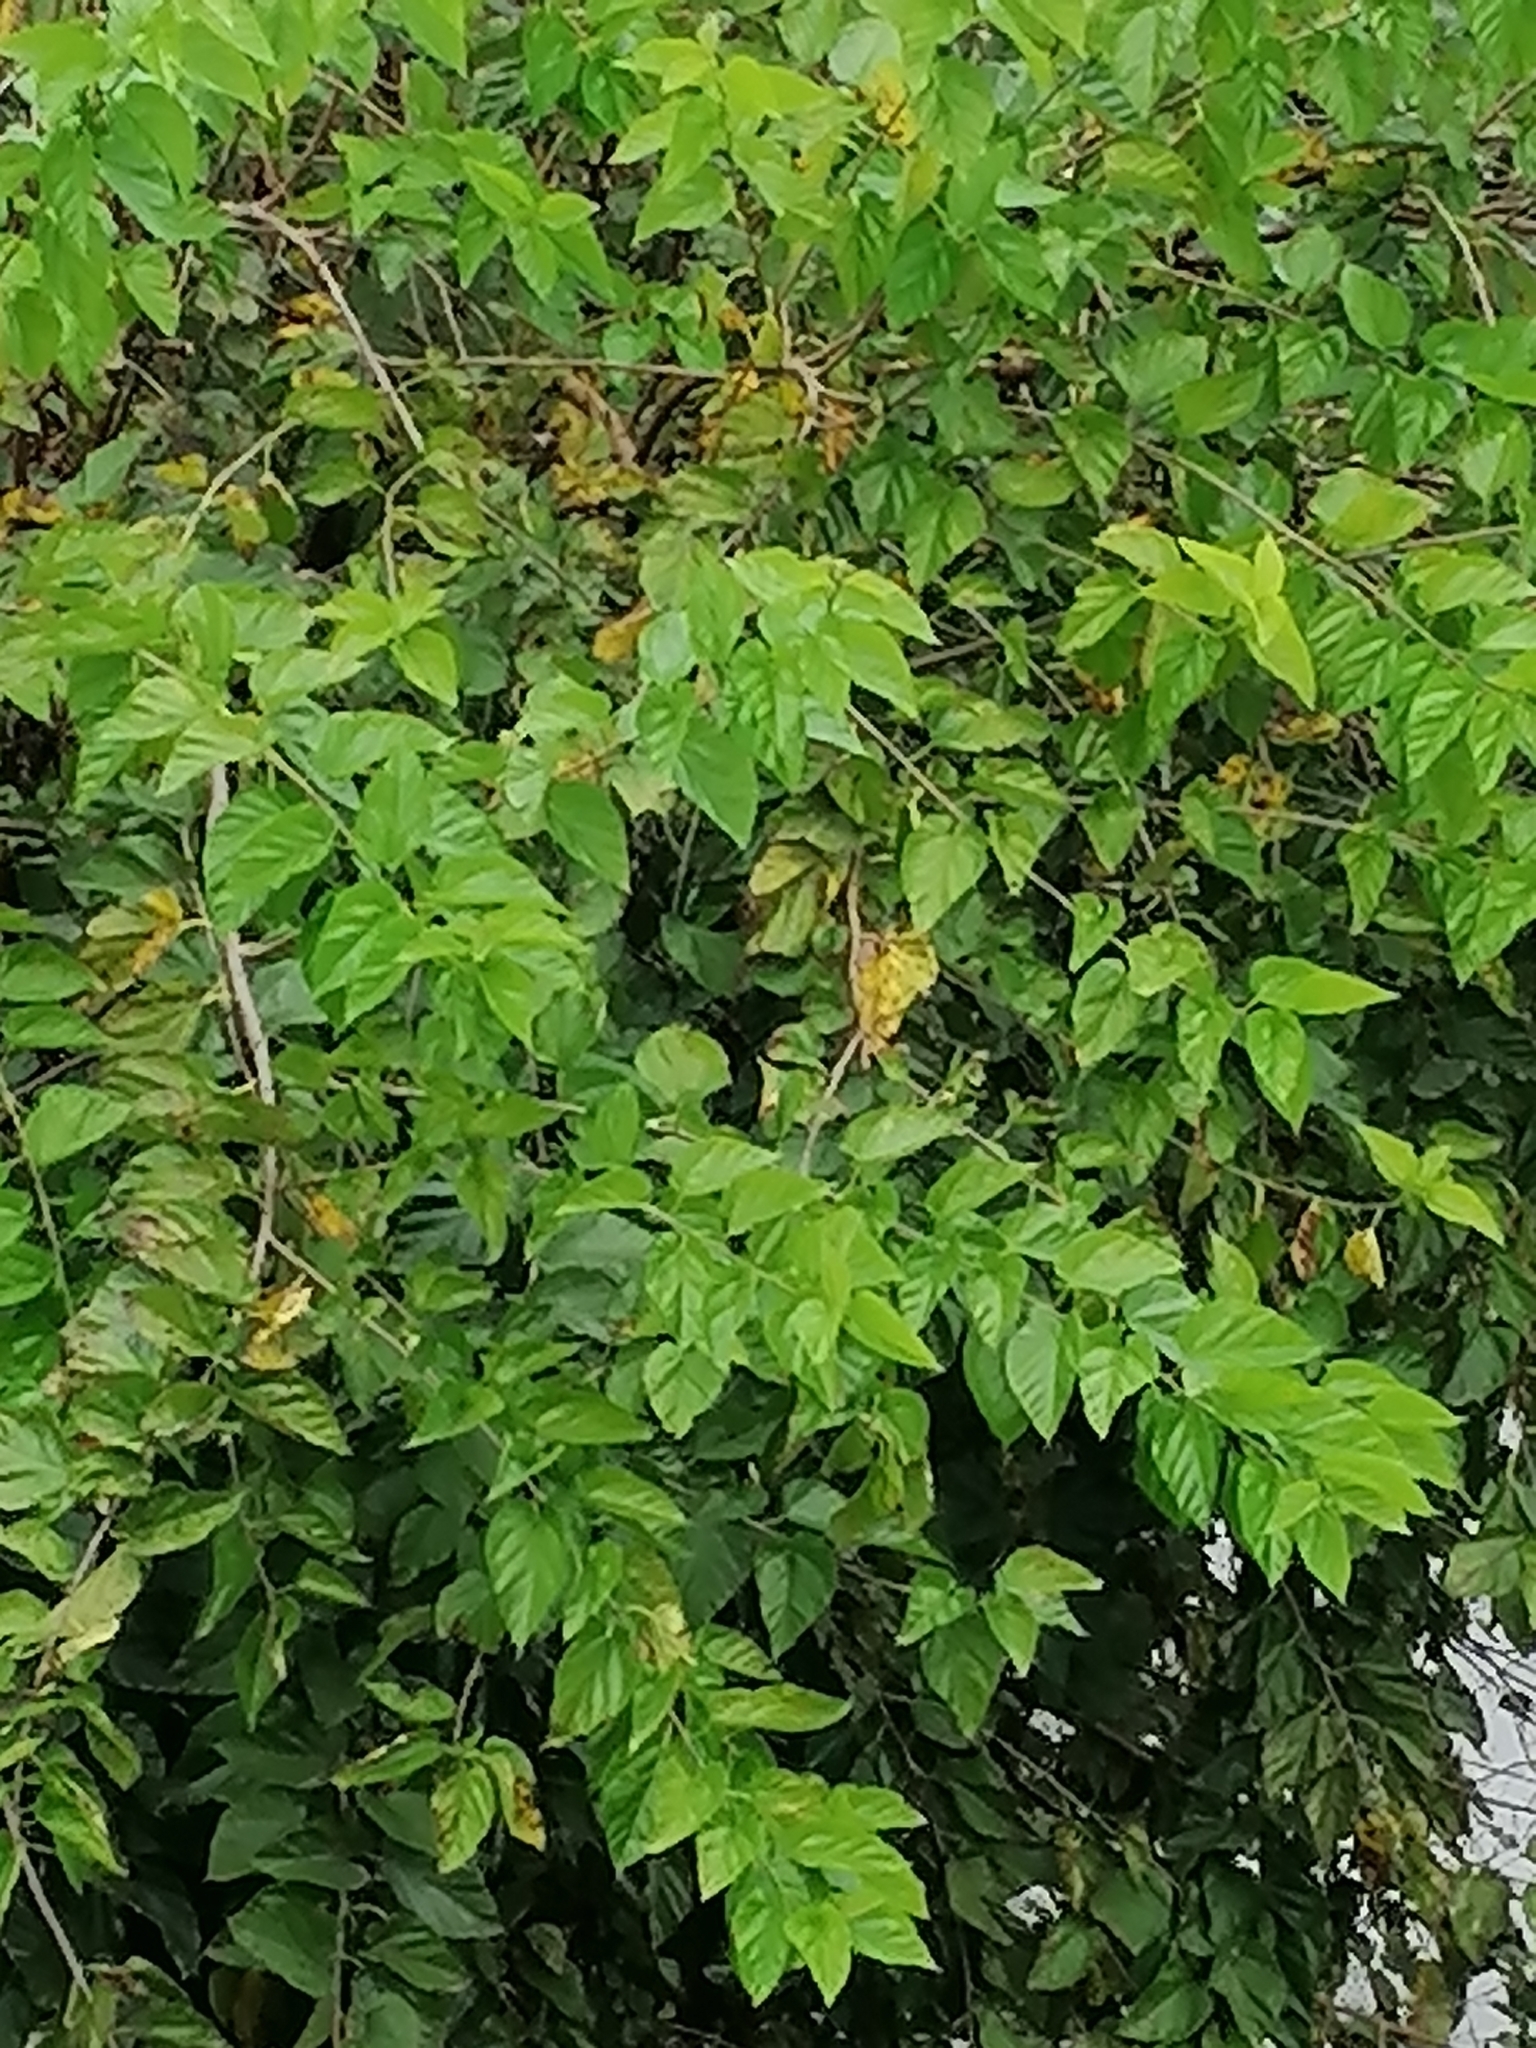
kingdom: Plantae
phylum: Tracheophyta
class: Magnoliopsida
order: Rosales
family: Moraceae
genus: Morus
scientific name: Morus alba
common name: White mulberry
